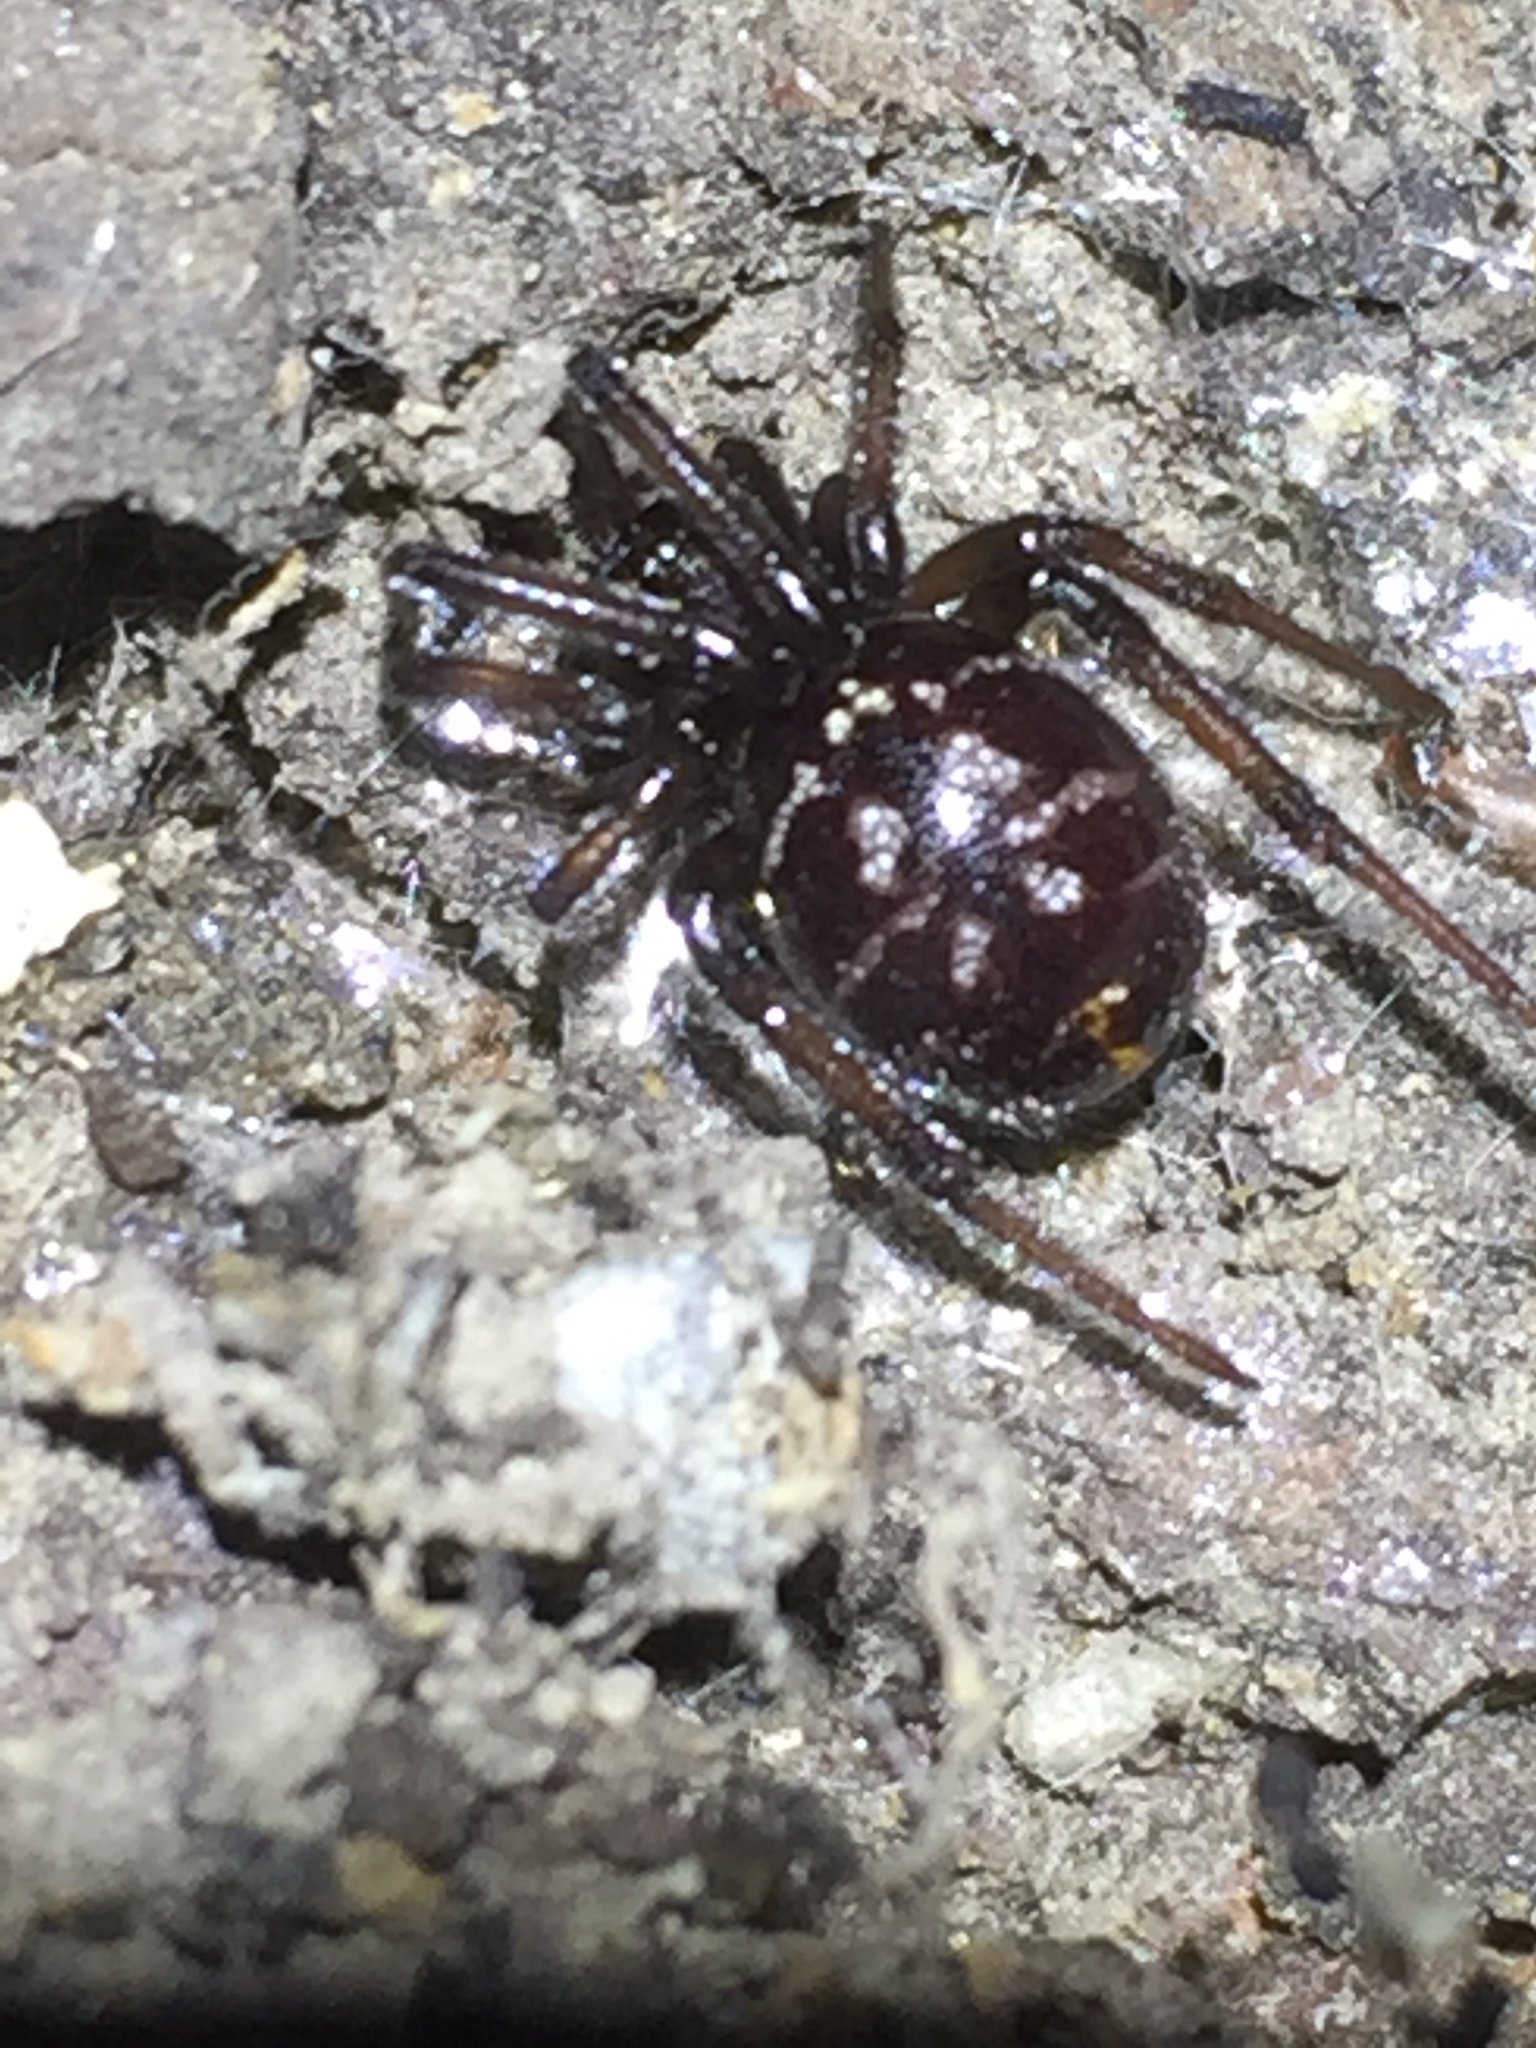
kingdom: Animalia
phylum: Arthropoda
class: Arachnida
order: Araneae
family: Theridiidae
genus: Steatoda
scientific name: Steatoda capensis
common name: Cobweb weaver
